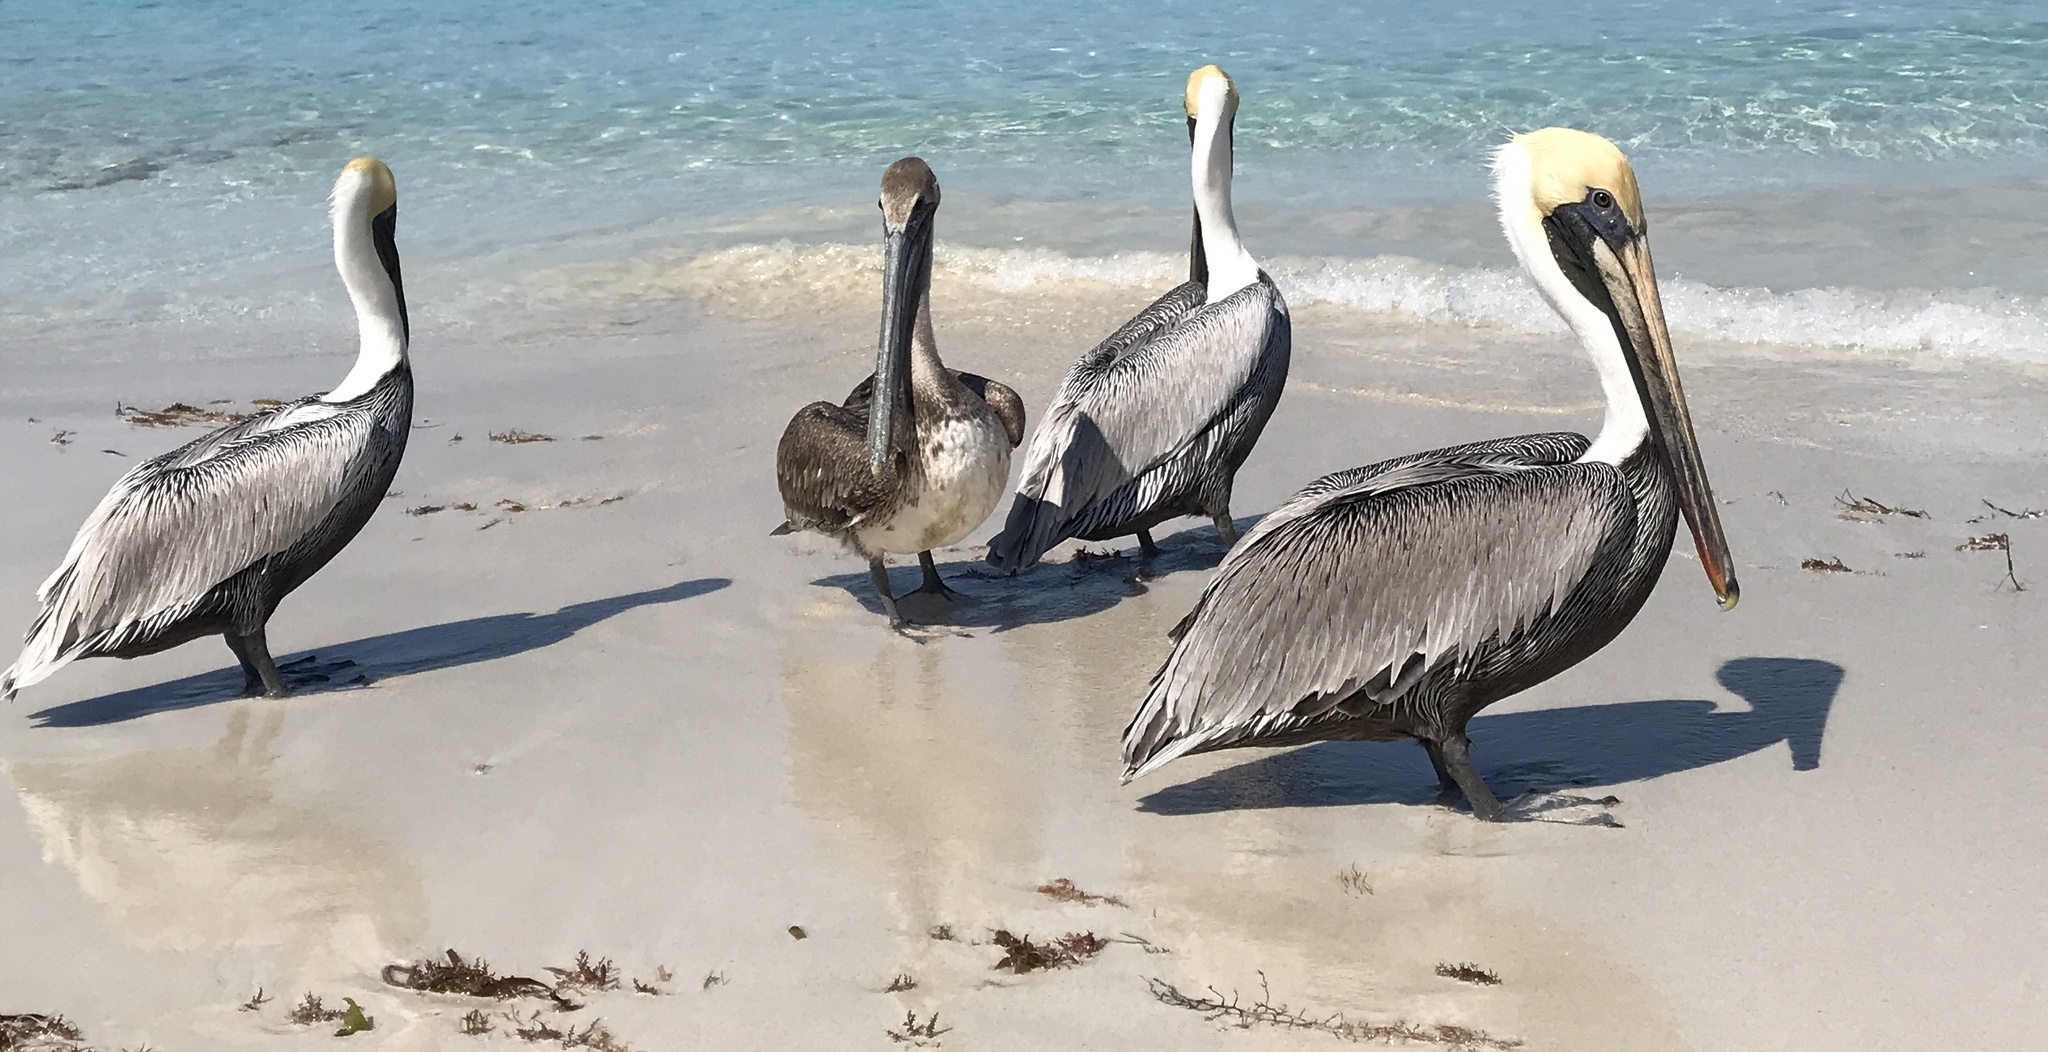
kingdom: Animalia
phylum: Chordata
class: Aves
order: Pelecaniformes
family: Pelecanidae
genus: Pelecanus
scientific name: Pelecanus occidentalis
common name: Brown pelican
